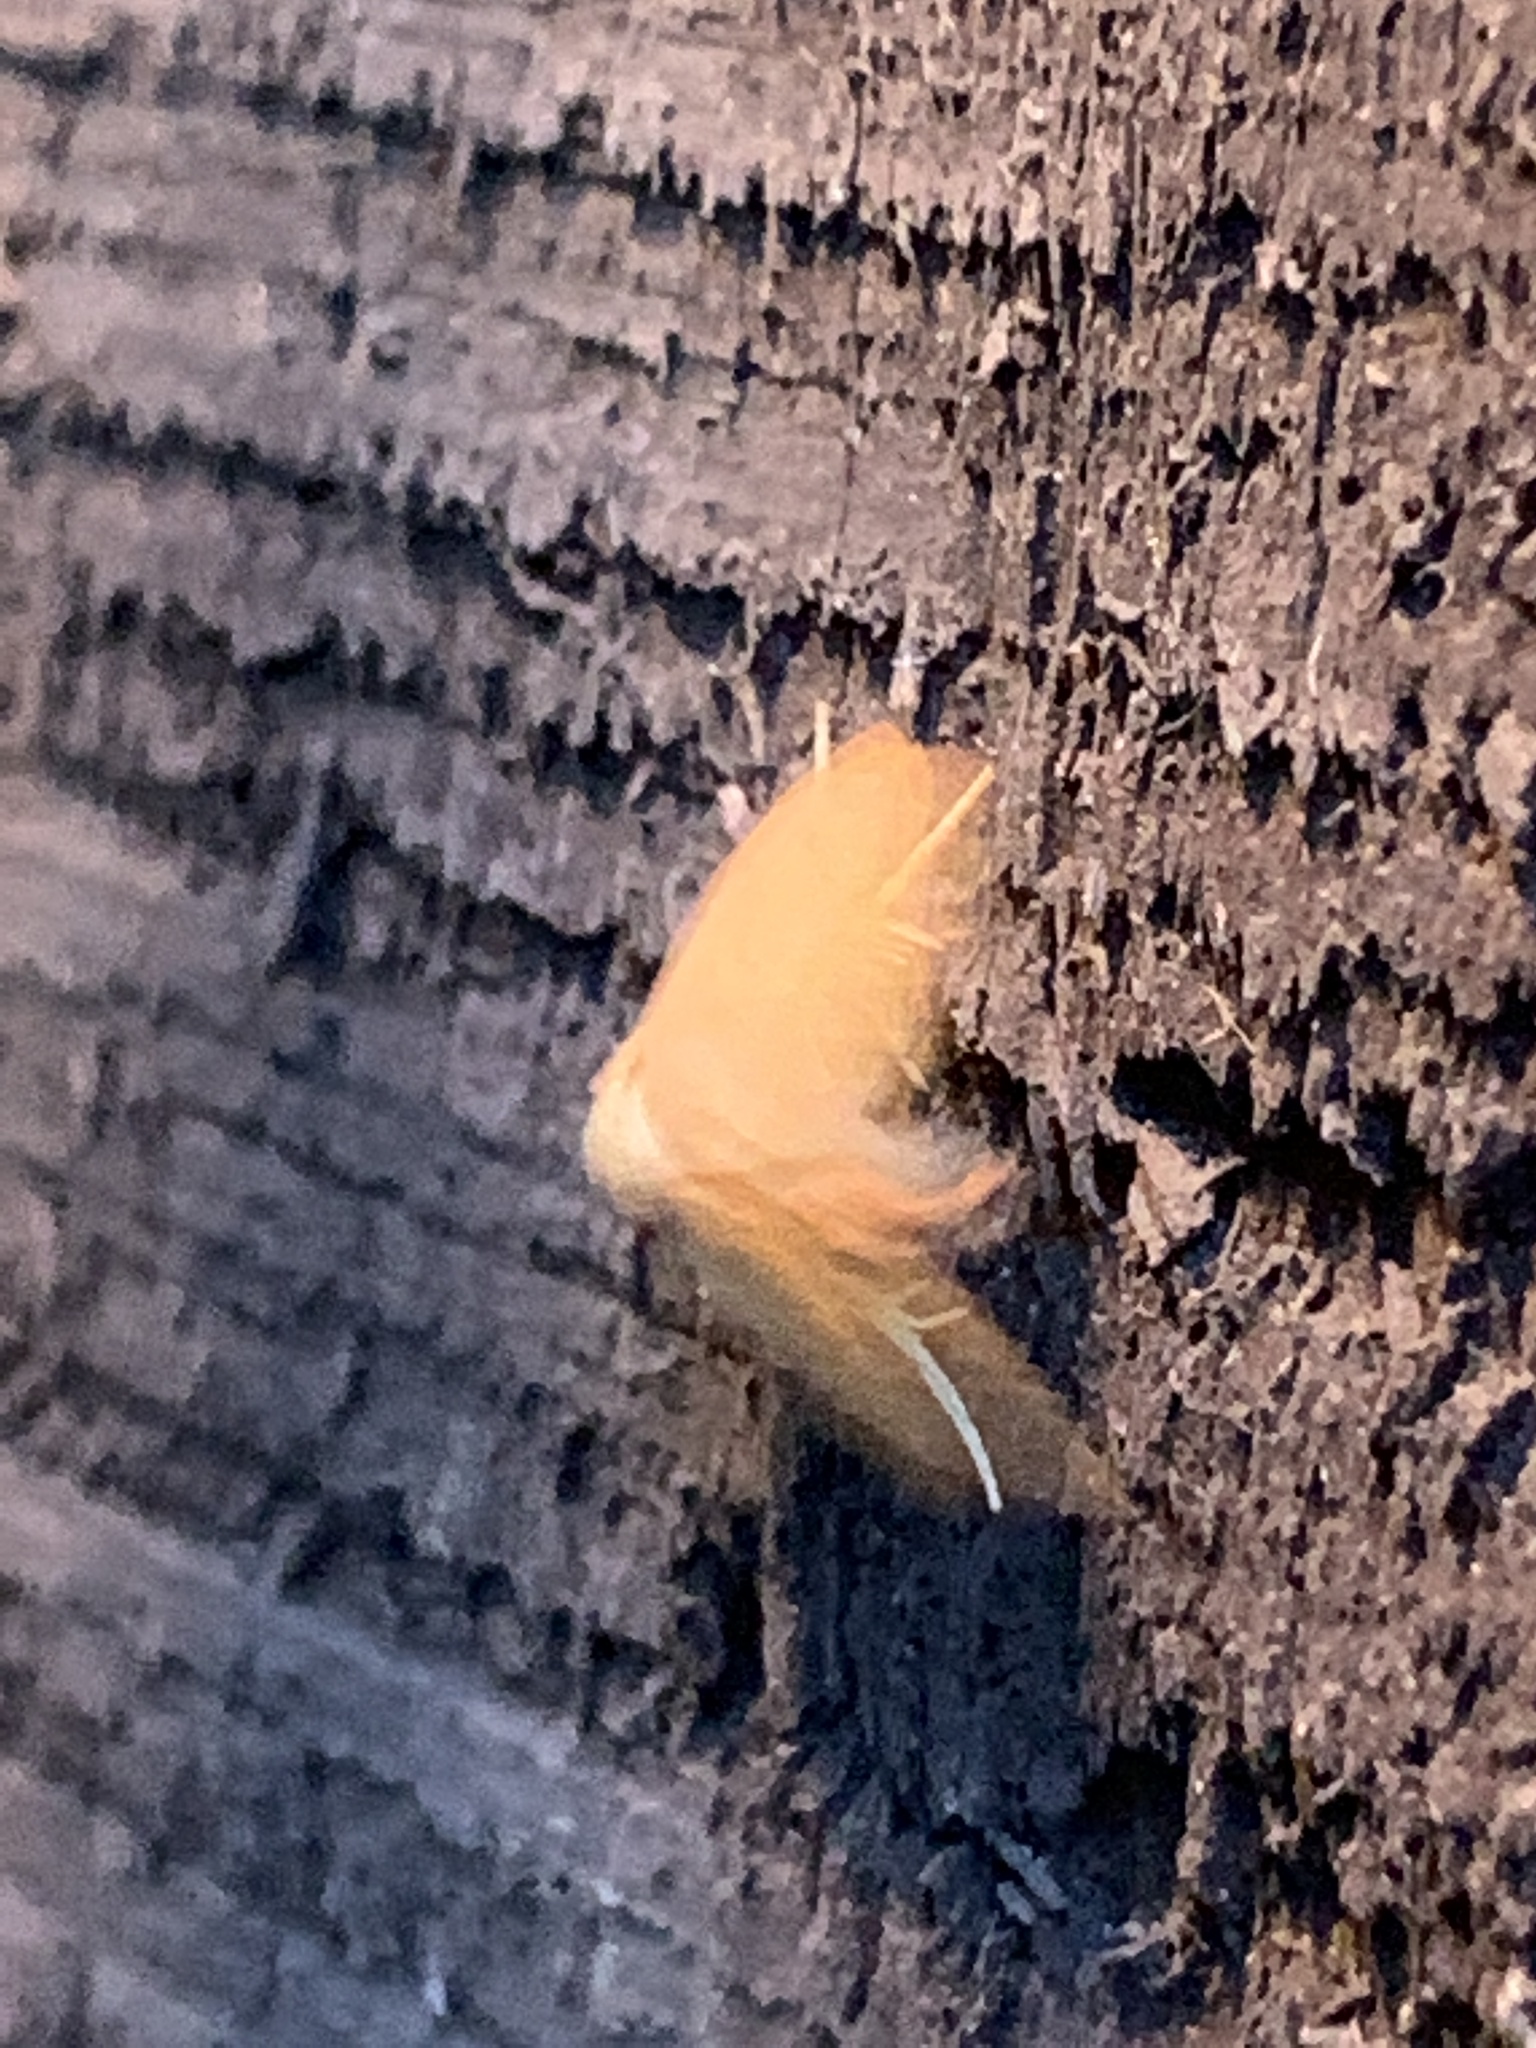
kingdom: Animalia
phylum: Arthropoda
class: Insecta
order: Lepidoptera
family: Limacodidae
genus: Tortricidia
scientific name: Tortricidia pallida
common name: Red-crossed button slug moth
